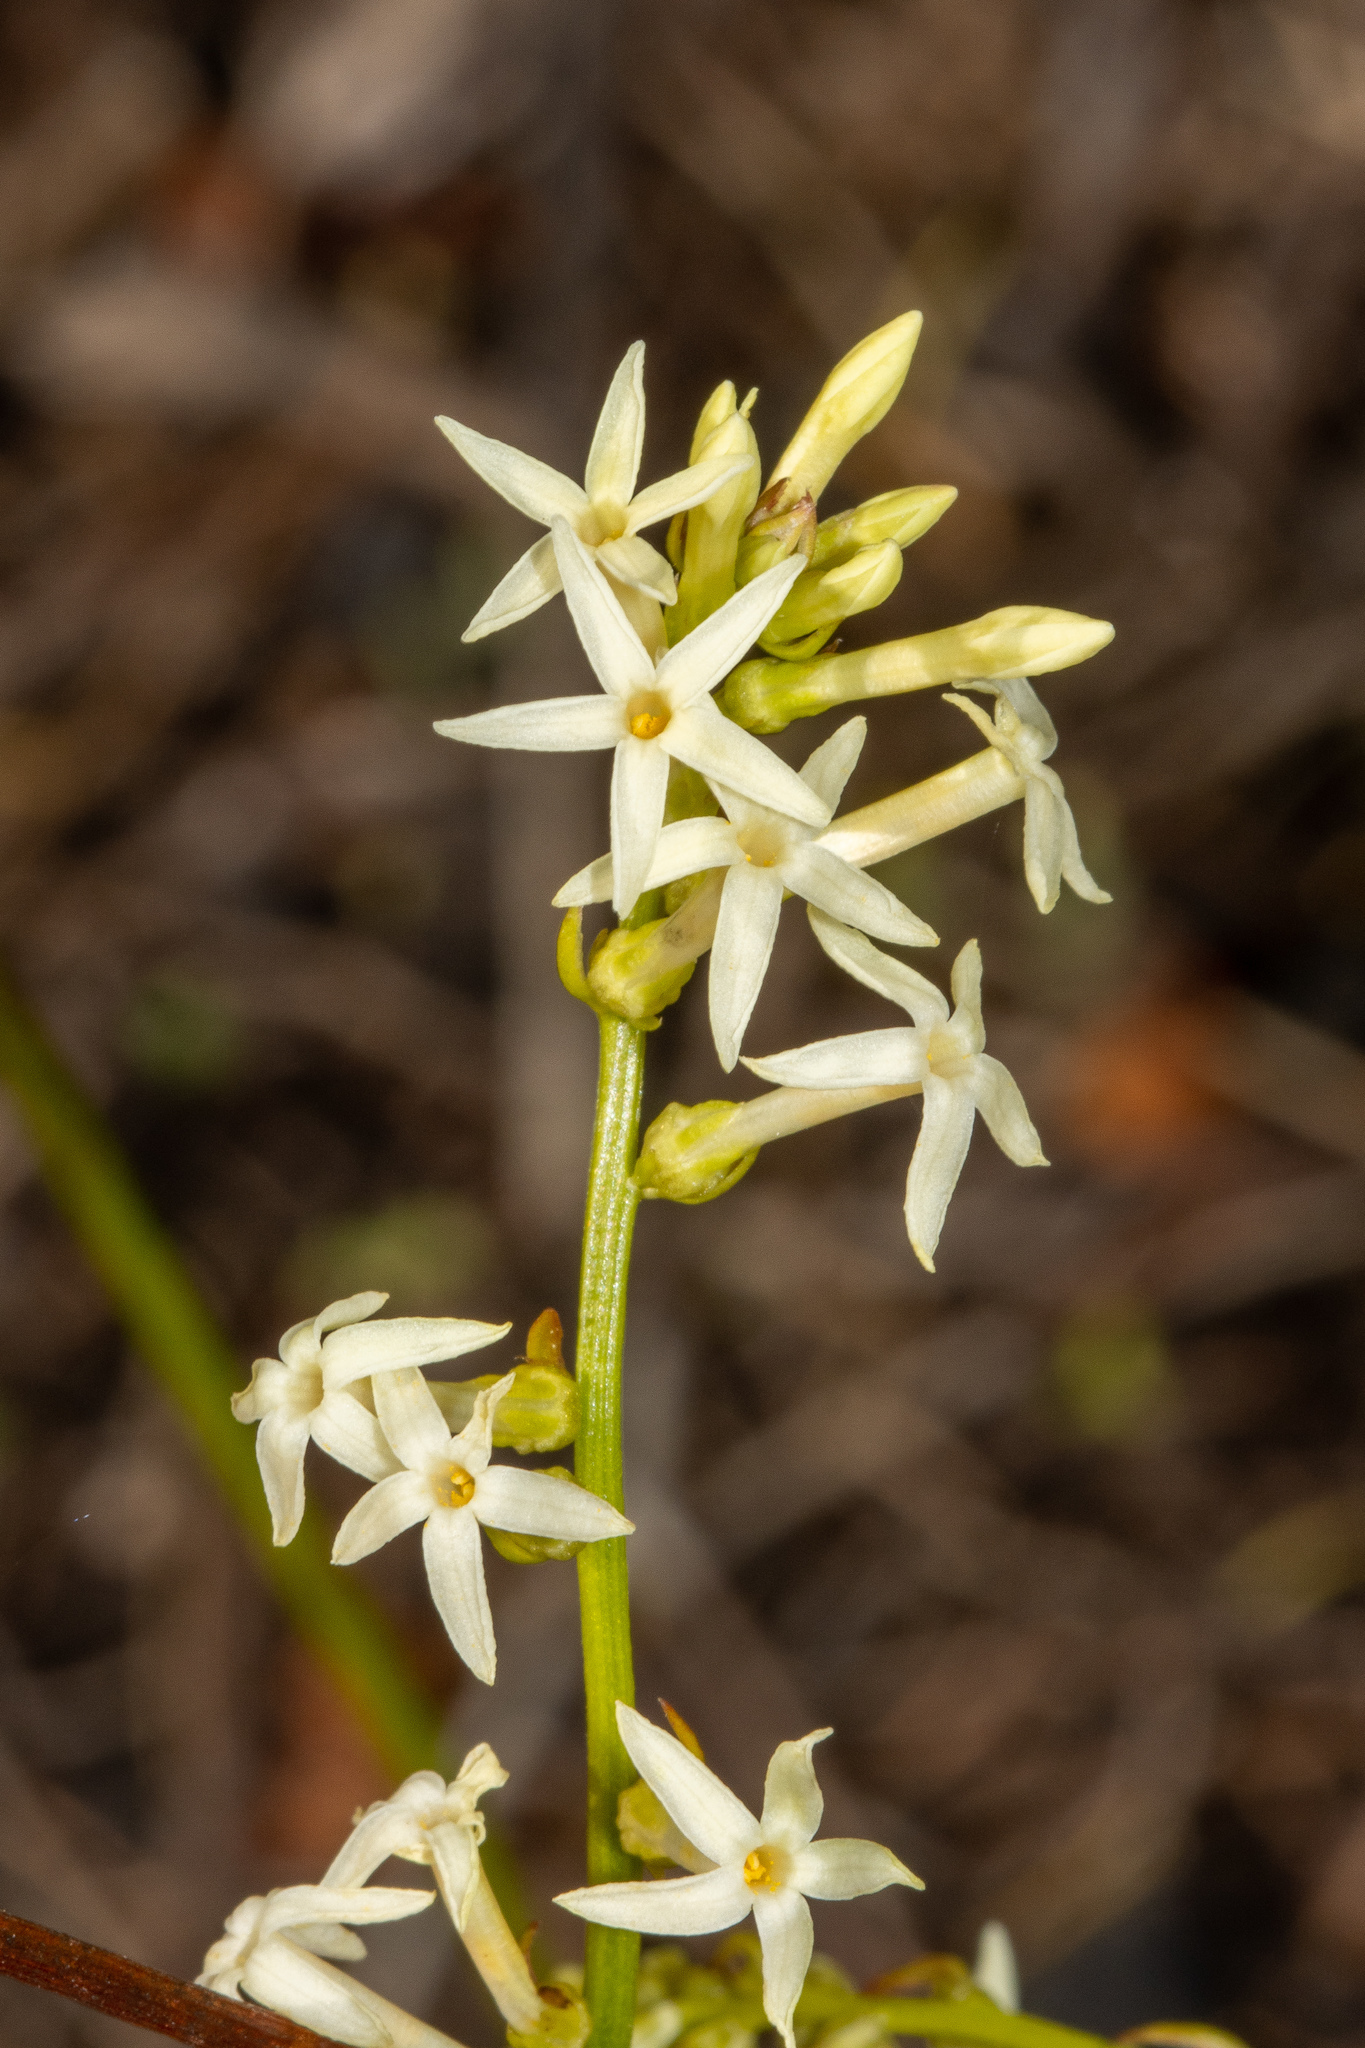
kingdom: Plantae
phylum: Tracheophyta
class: Magnoliopsida
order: Celastrales
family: Celastraceae
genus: Stackhousia
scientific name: Stackhousia monogyna
